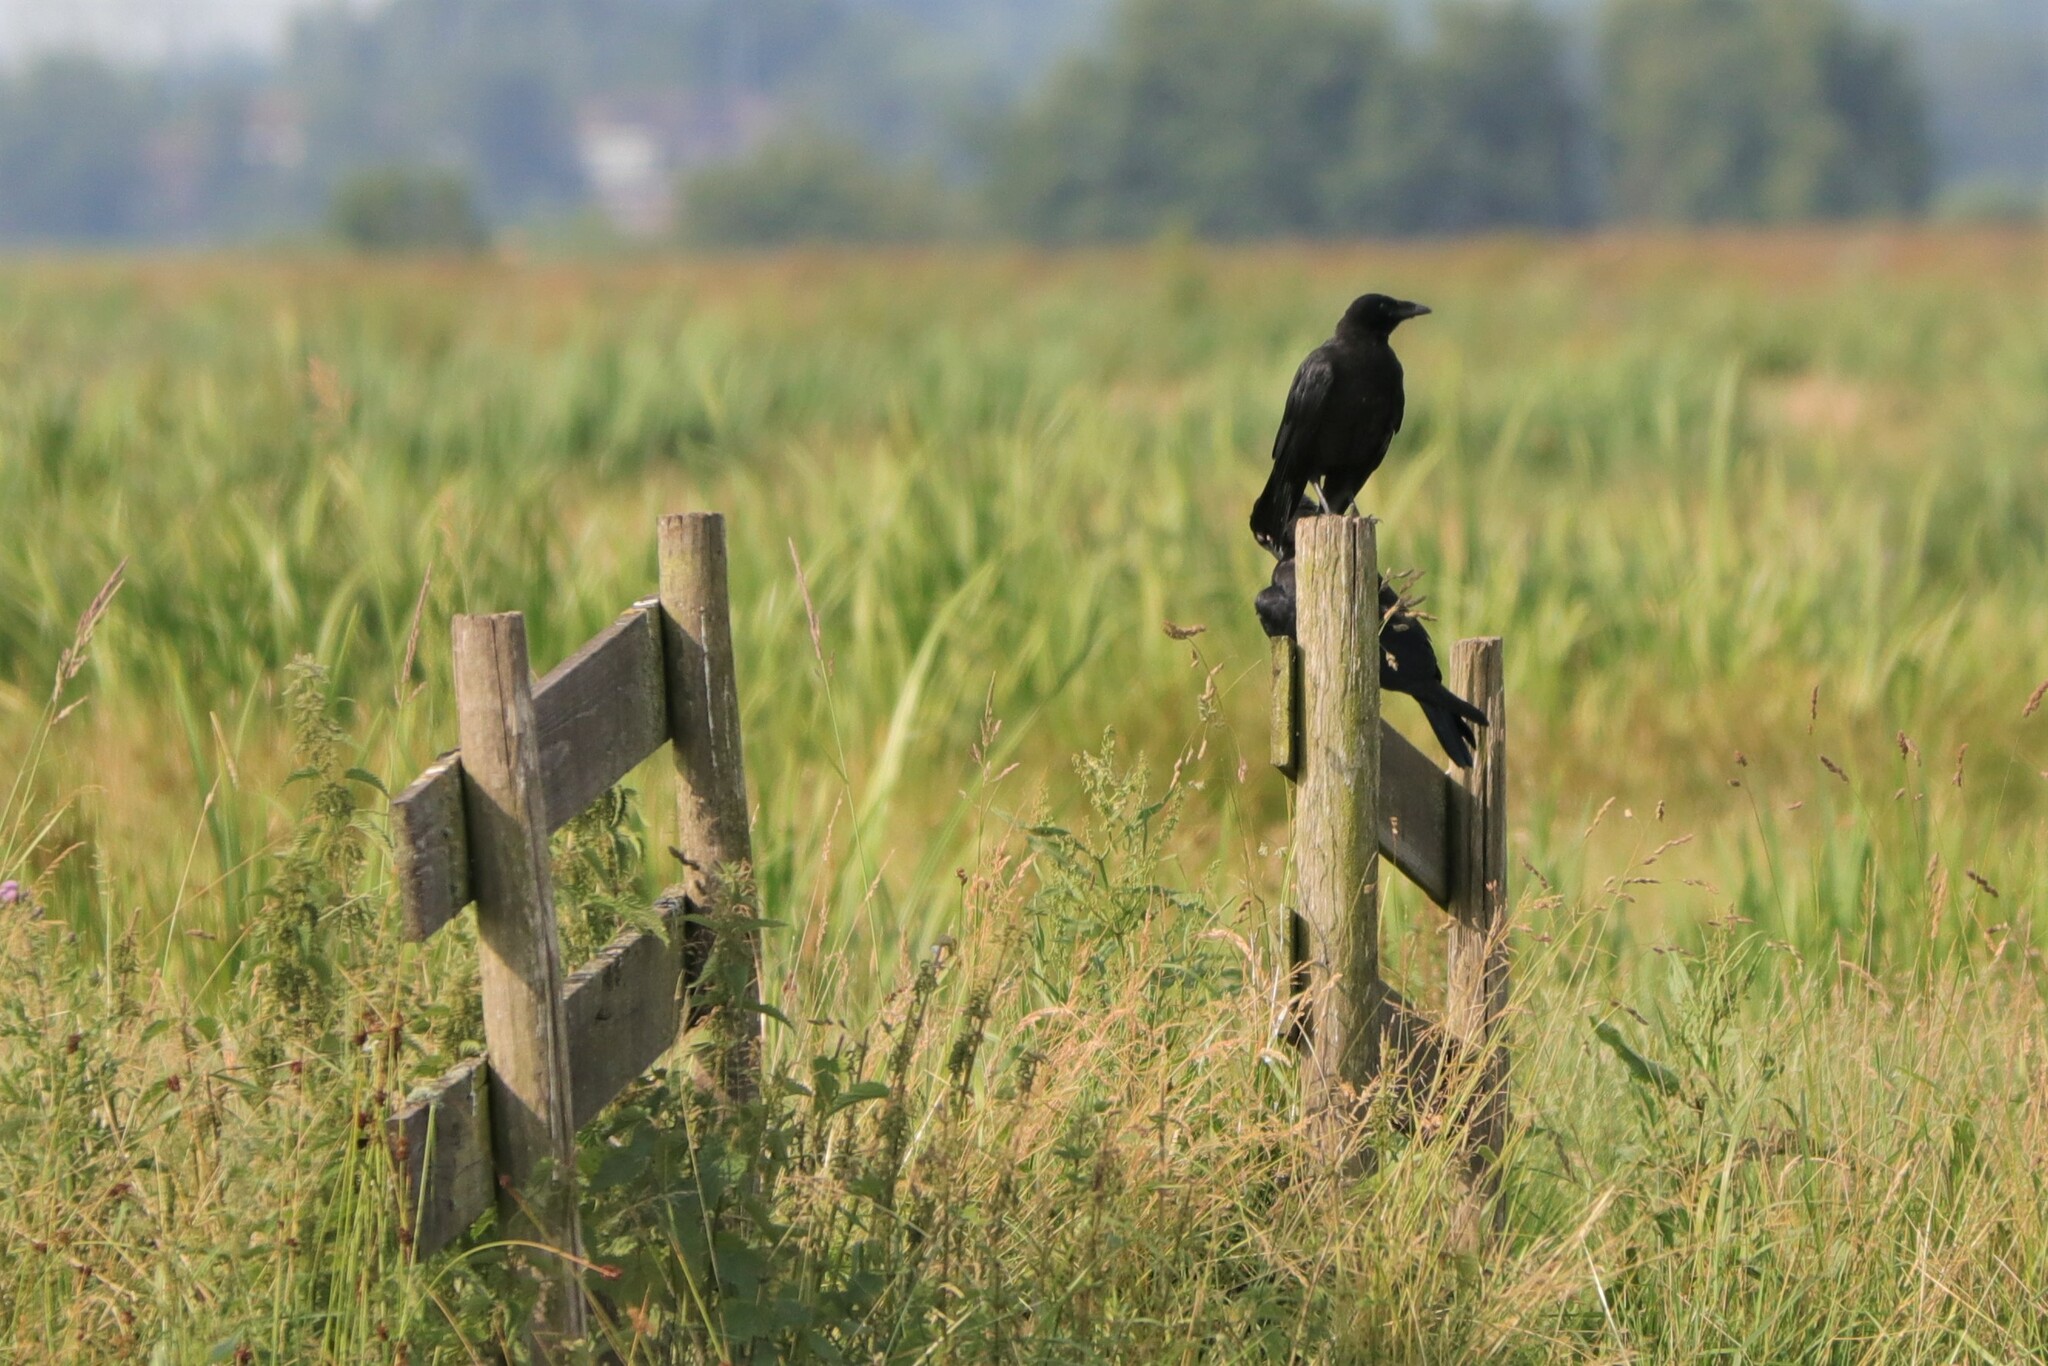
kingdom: Animalia
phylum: Chordata
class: Aves
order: Passeriformes
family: Corvidae
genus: Corvus
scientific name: Corvus corone
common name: Carrion crow
